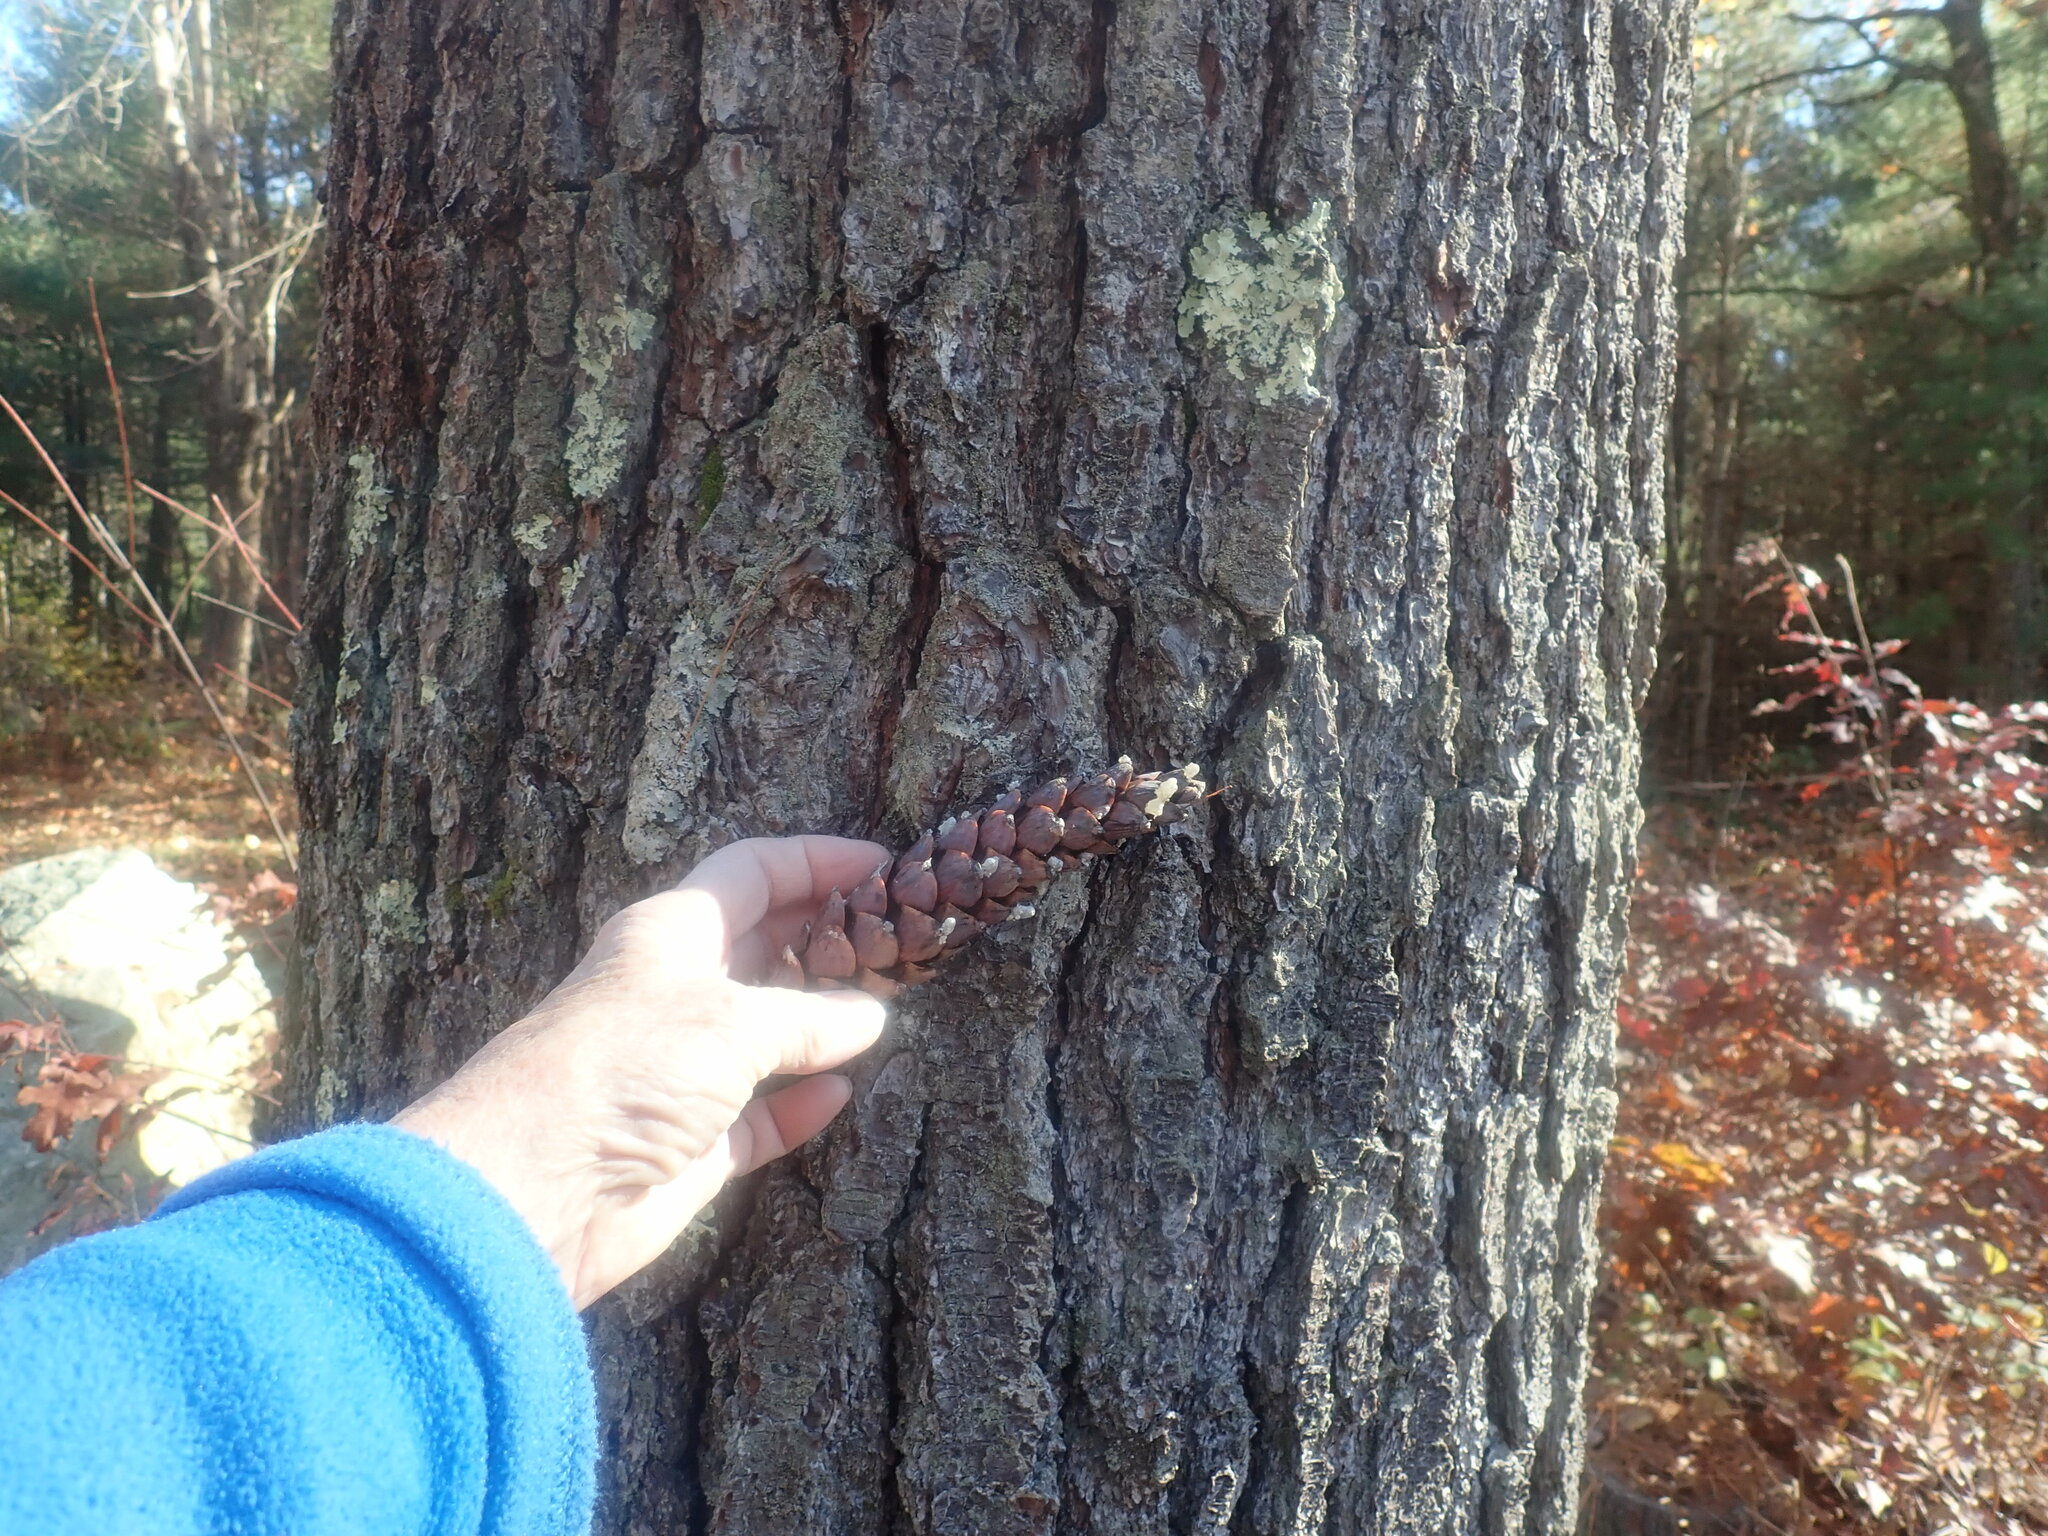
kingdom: Plantae
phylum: Tracheophyta
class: Pinopsida
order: Pinales
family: Pinaceae
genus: Pinus
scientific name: Pinus strobus
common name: Weymouth pine
